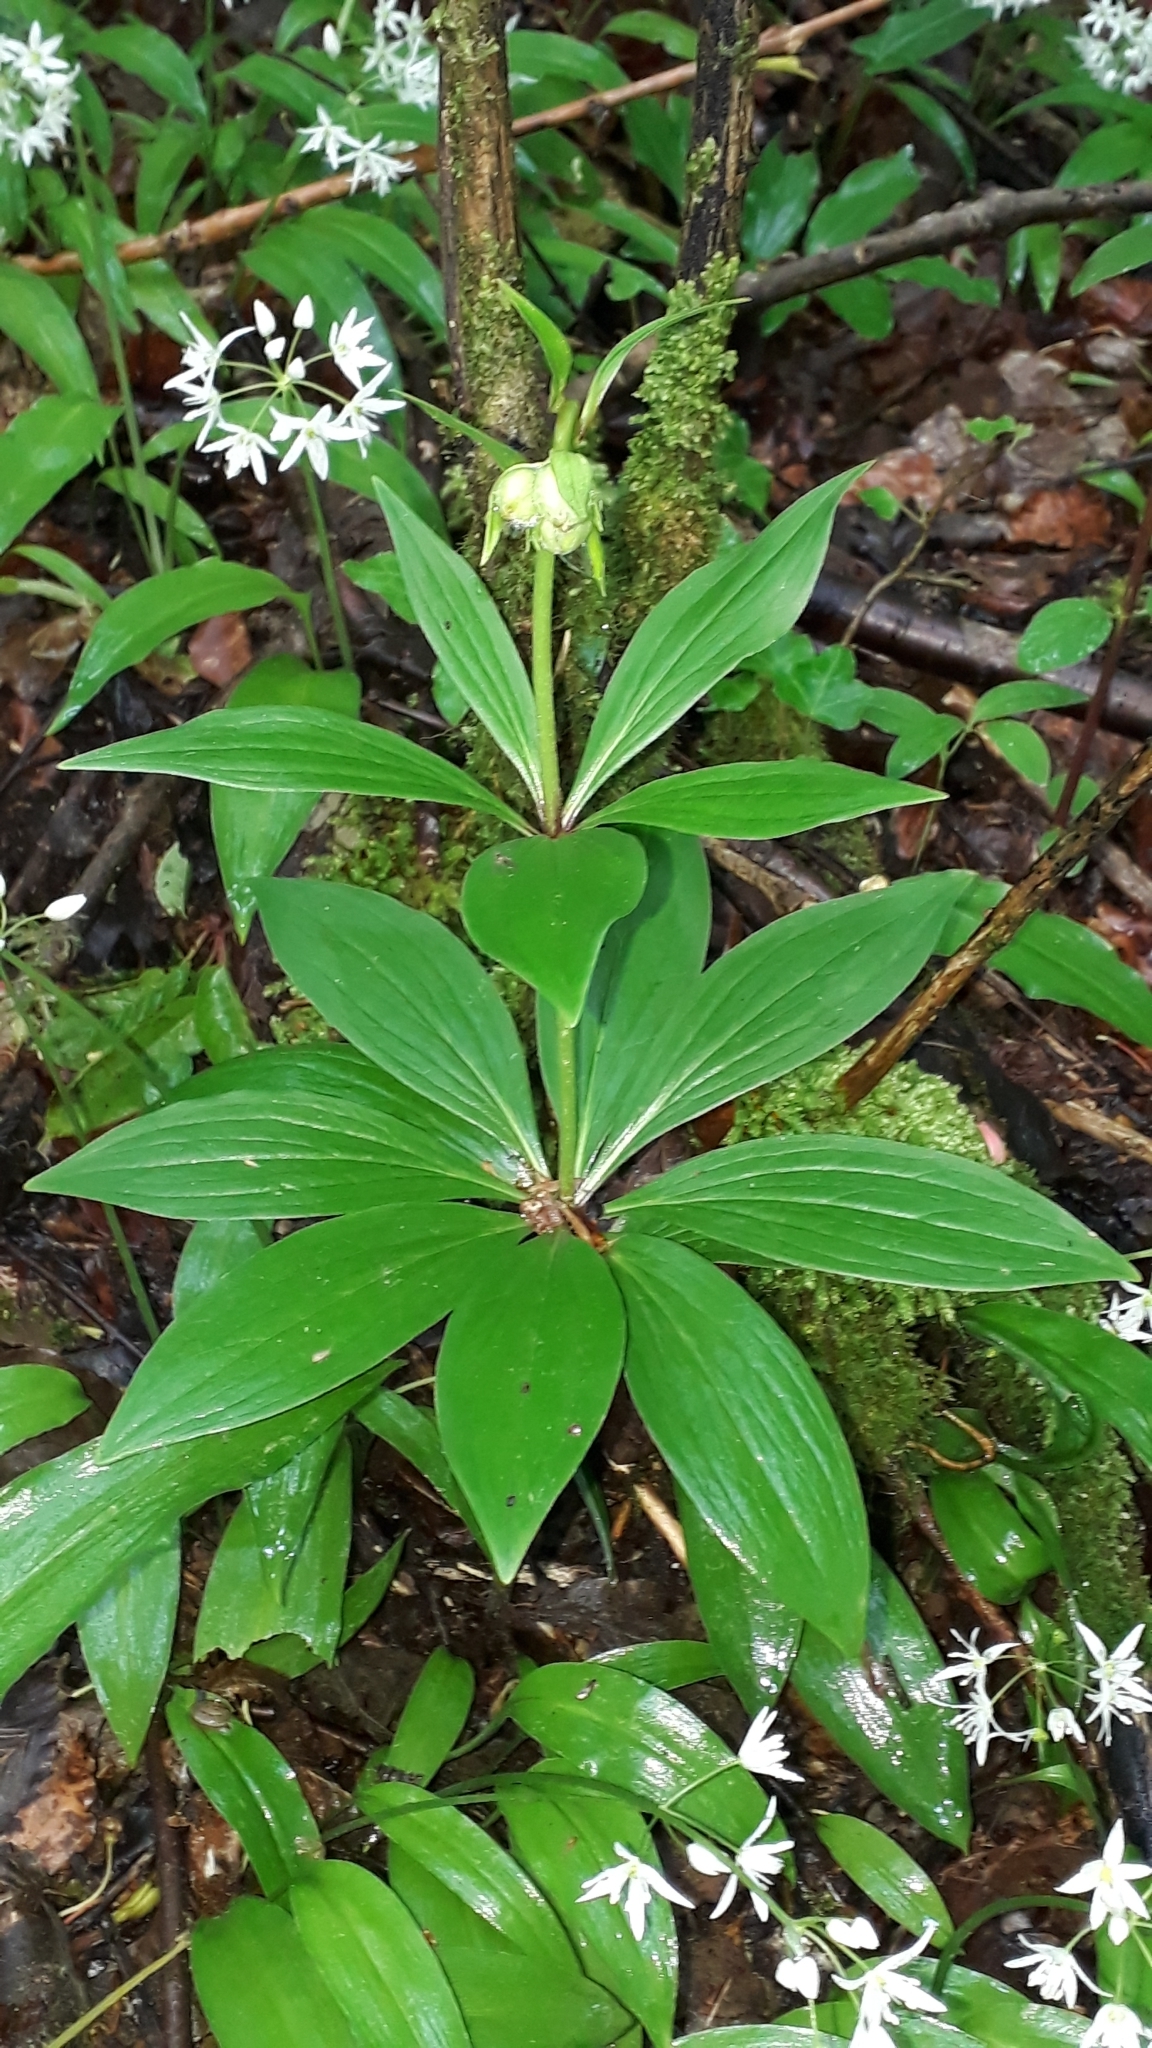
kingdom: Plantae
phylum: Tracheophyta
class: Liliopsida
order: Liliales
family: Liliaceae
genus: Lilium
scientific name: Lilium martagon
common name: Martagon lily
